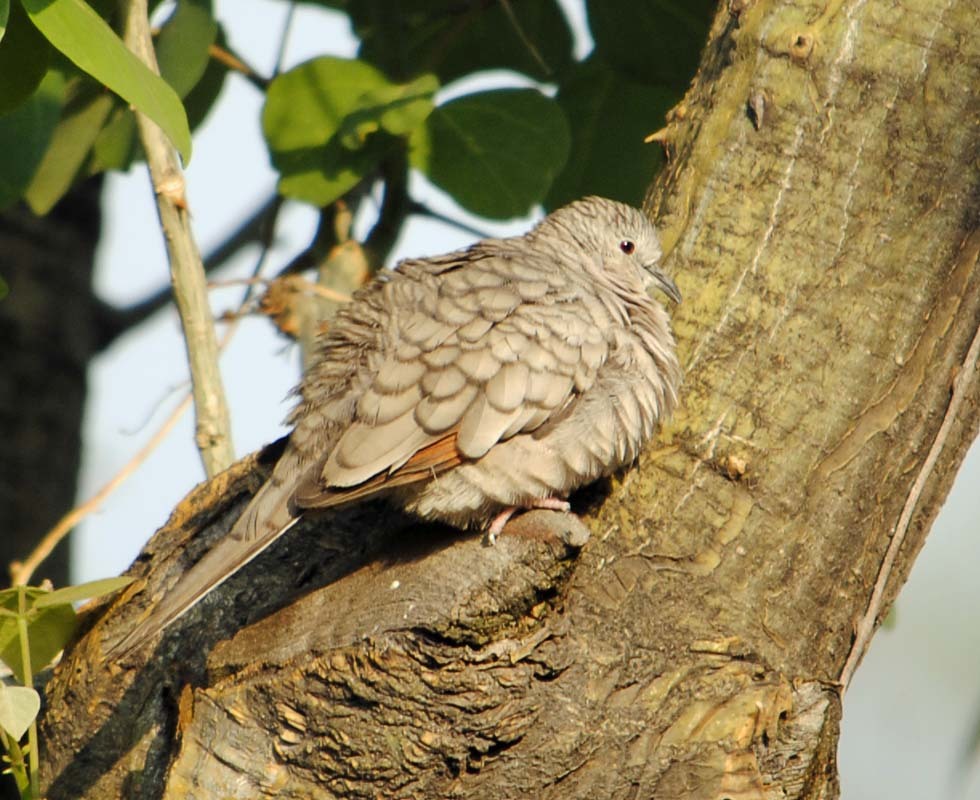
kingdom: Animalia
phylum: Chordata
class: Aves
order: Columbiformes
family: Columbidae
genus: Columbina
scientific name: Columbina inca
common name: Inca dove
